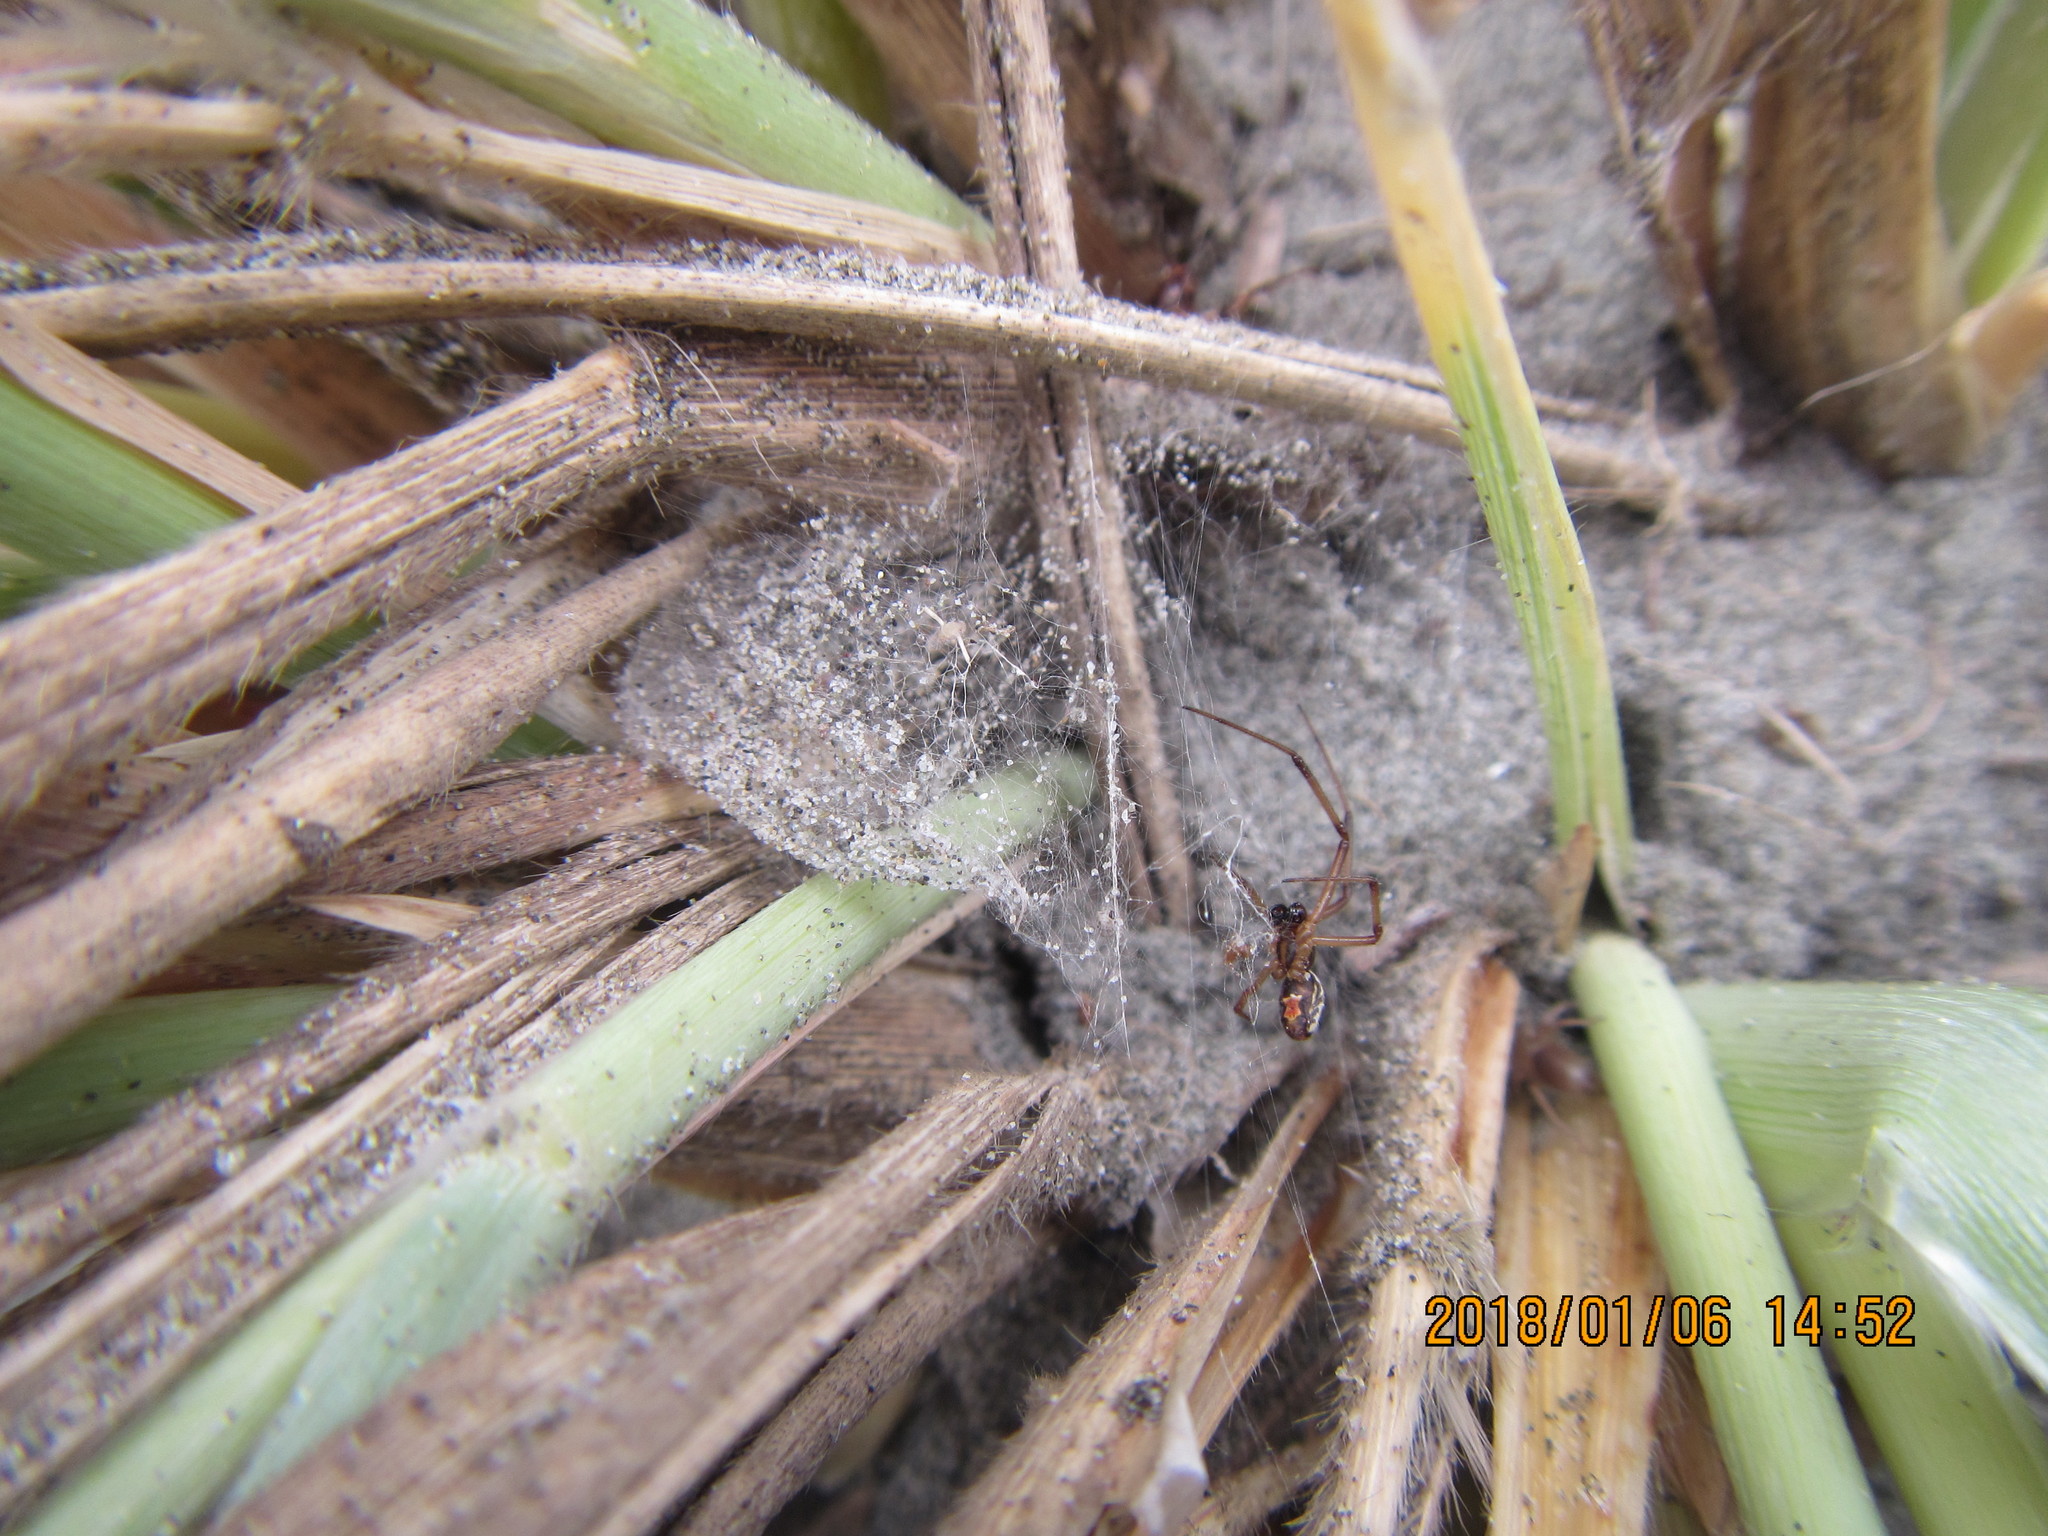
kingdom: Animalia
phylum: Arthropoda
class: Arachnida
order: Araneae
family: Theridiidae
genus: Latrodectus
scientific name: Latrodectus katipo
